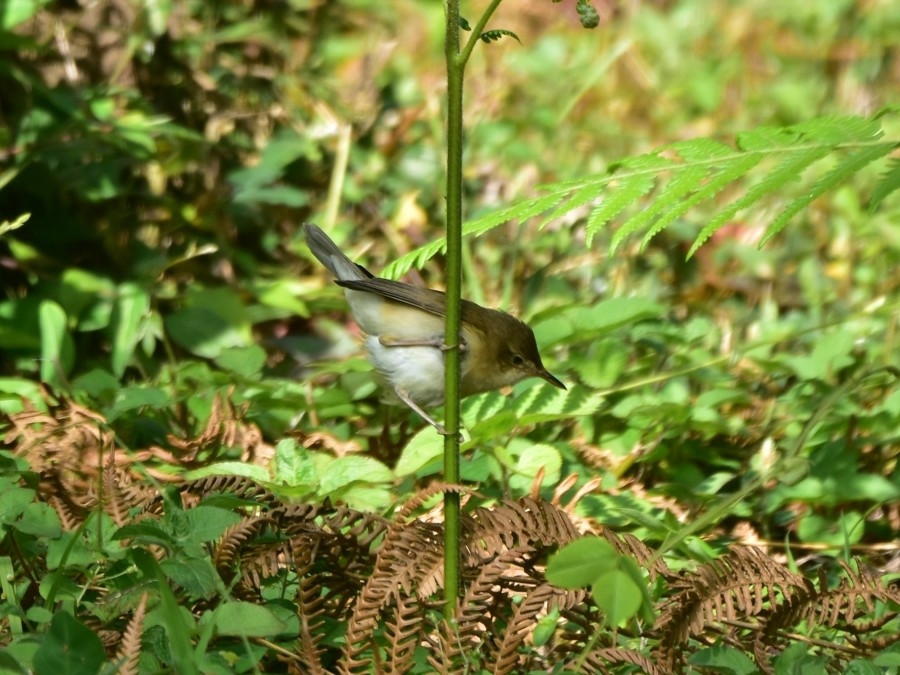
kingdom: Animalia
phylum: Chordata
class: Aves
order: Passeriformes
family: Acrocephalidae
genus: Acrocephalus
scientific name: Acrocephalus dumetorum
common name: Blyth's reed warbler
